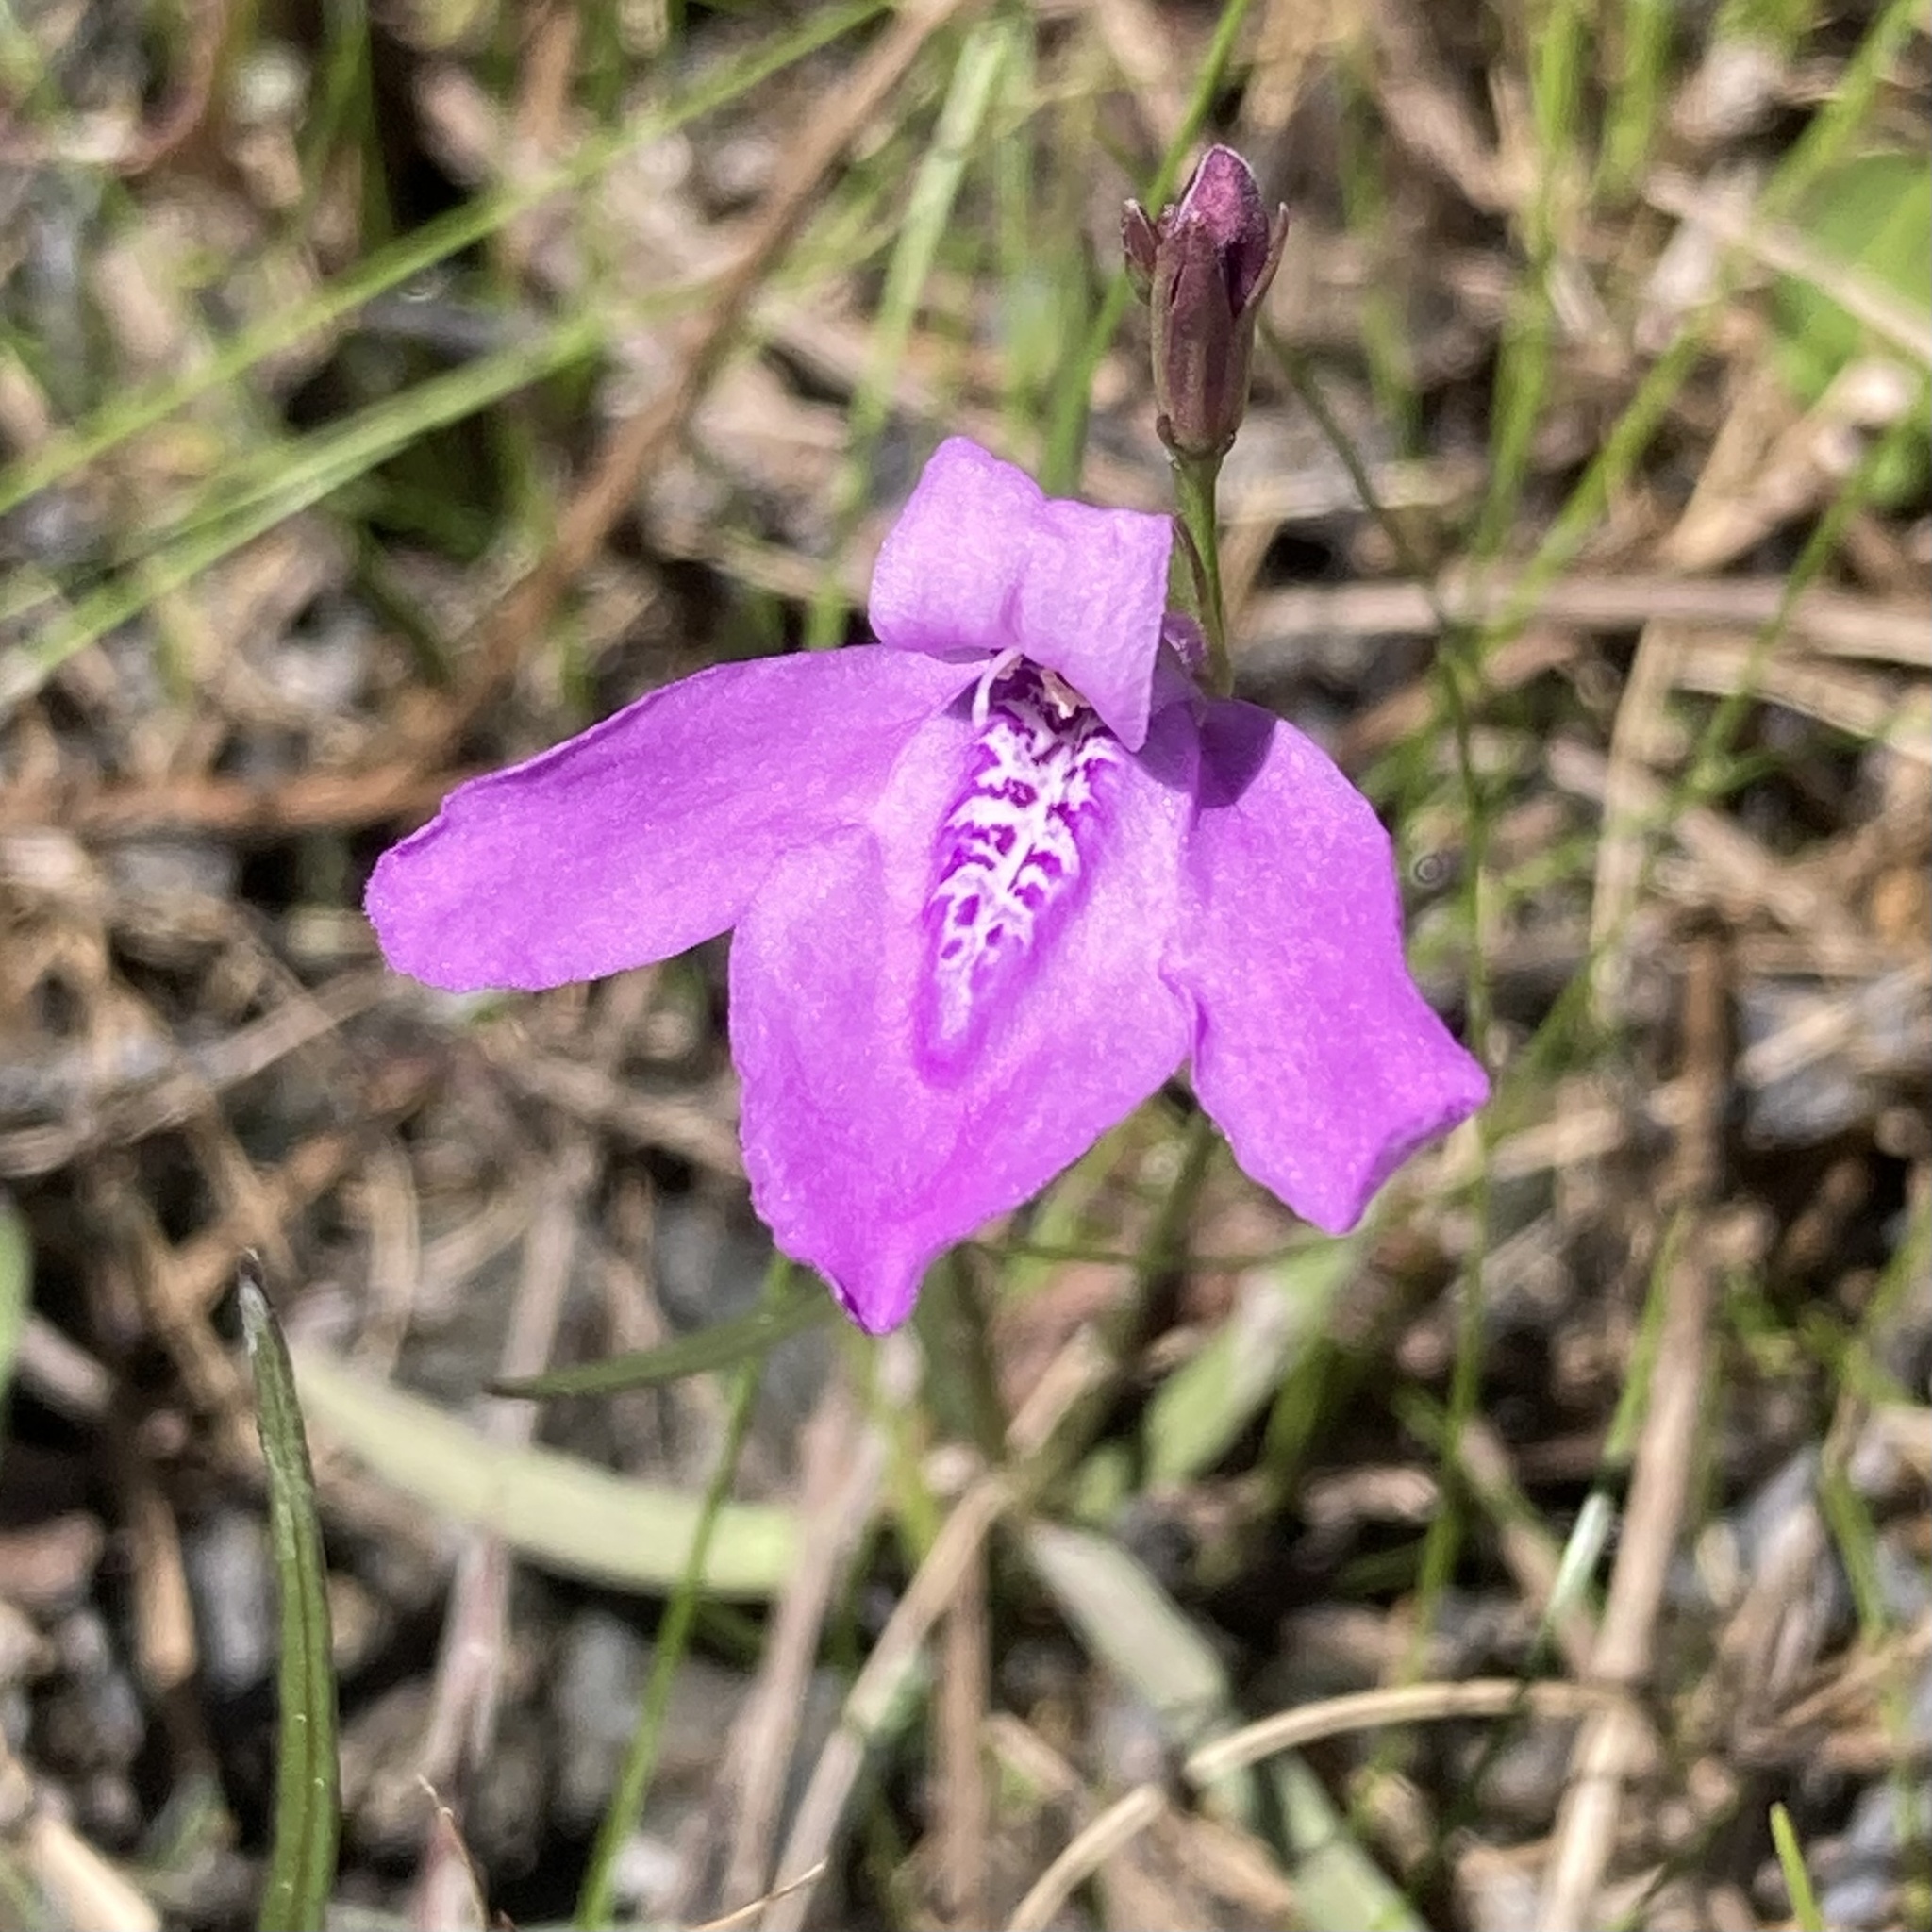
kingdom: Plantae
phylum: Tracheophyta
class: Magnoliopsida
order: Lamiales
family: Acanthaceae
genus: Dianthera
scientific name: Dianthera angusta
